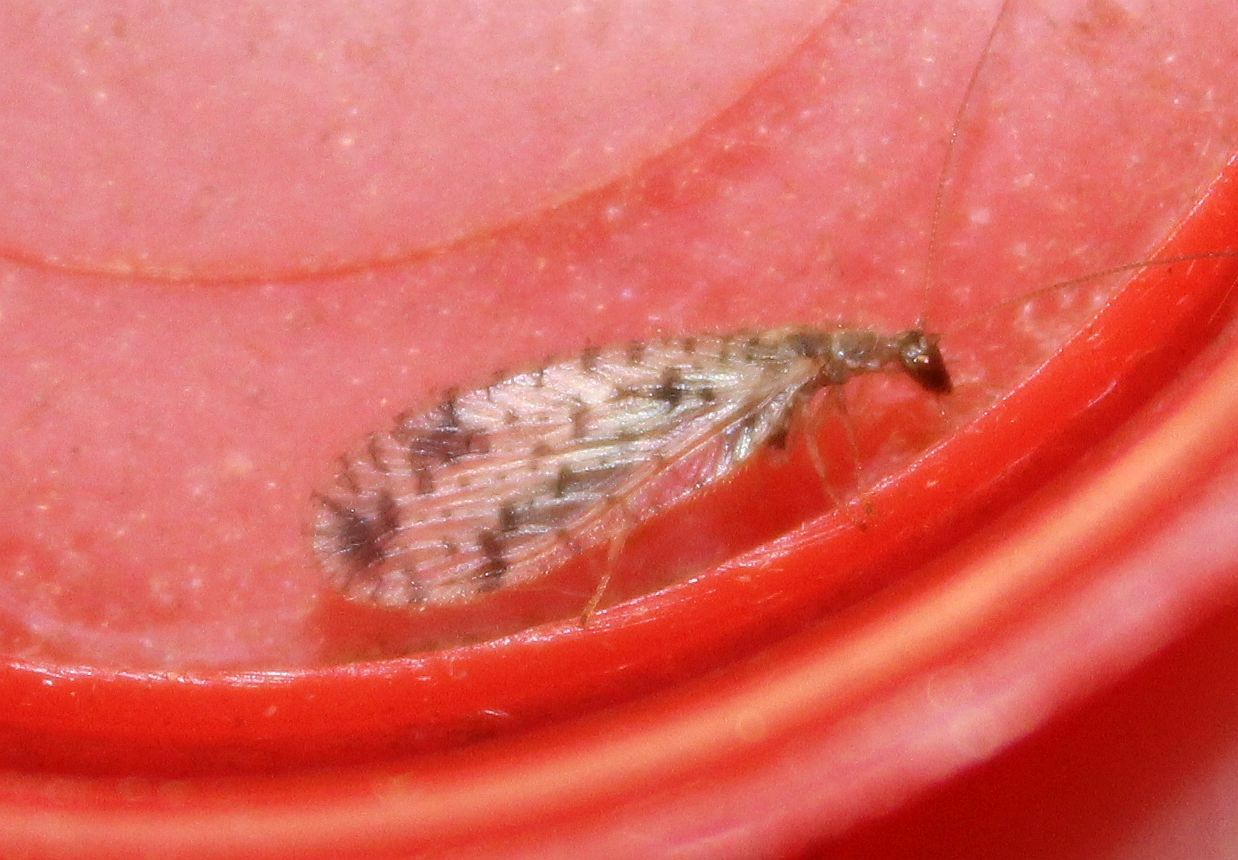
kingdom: Animalia
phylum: Arthropoda
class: Insecta
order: Neuroptera
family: Hemerobiidae
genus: Micromus
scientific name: Micromus variegatus
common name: Brown lacewing
